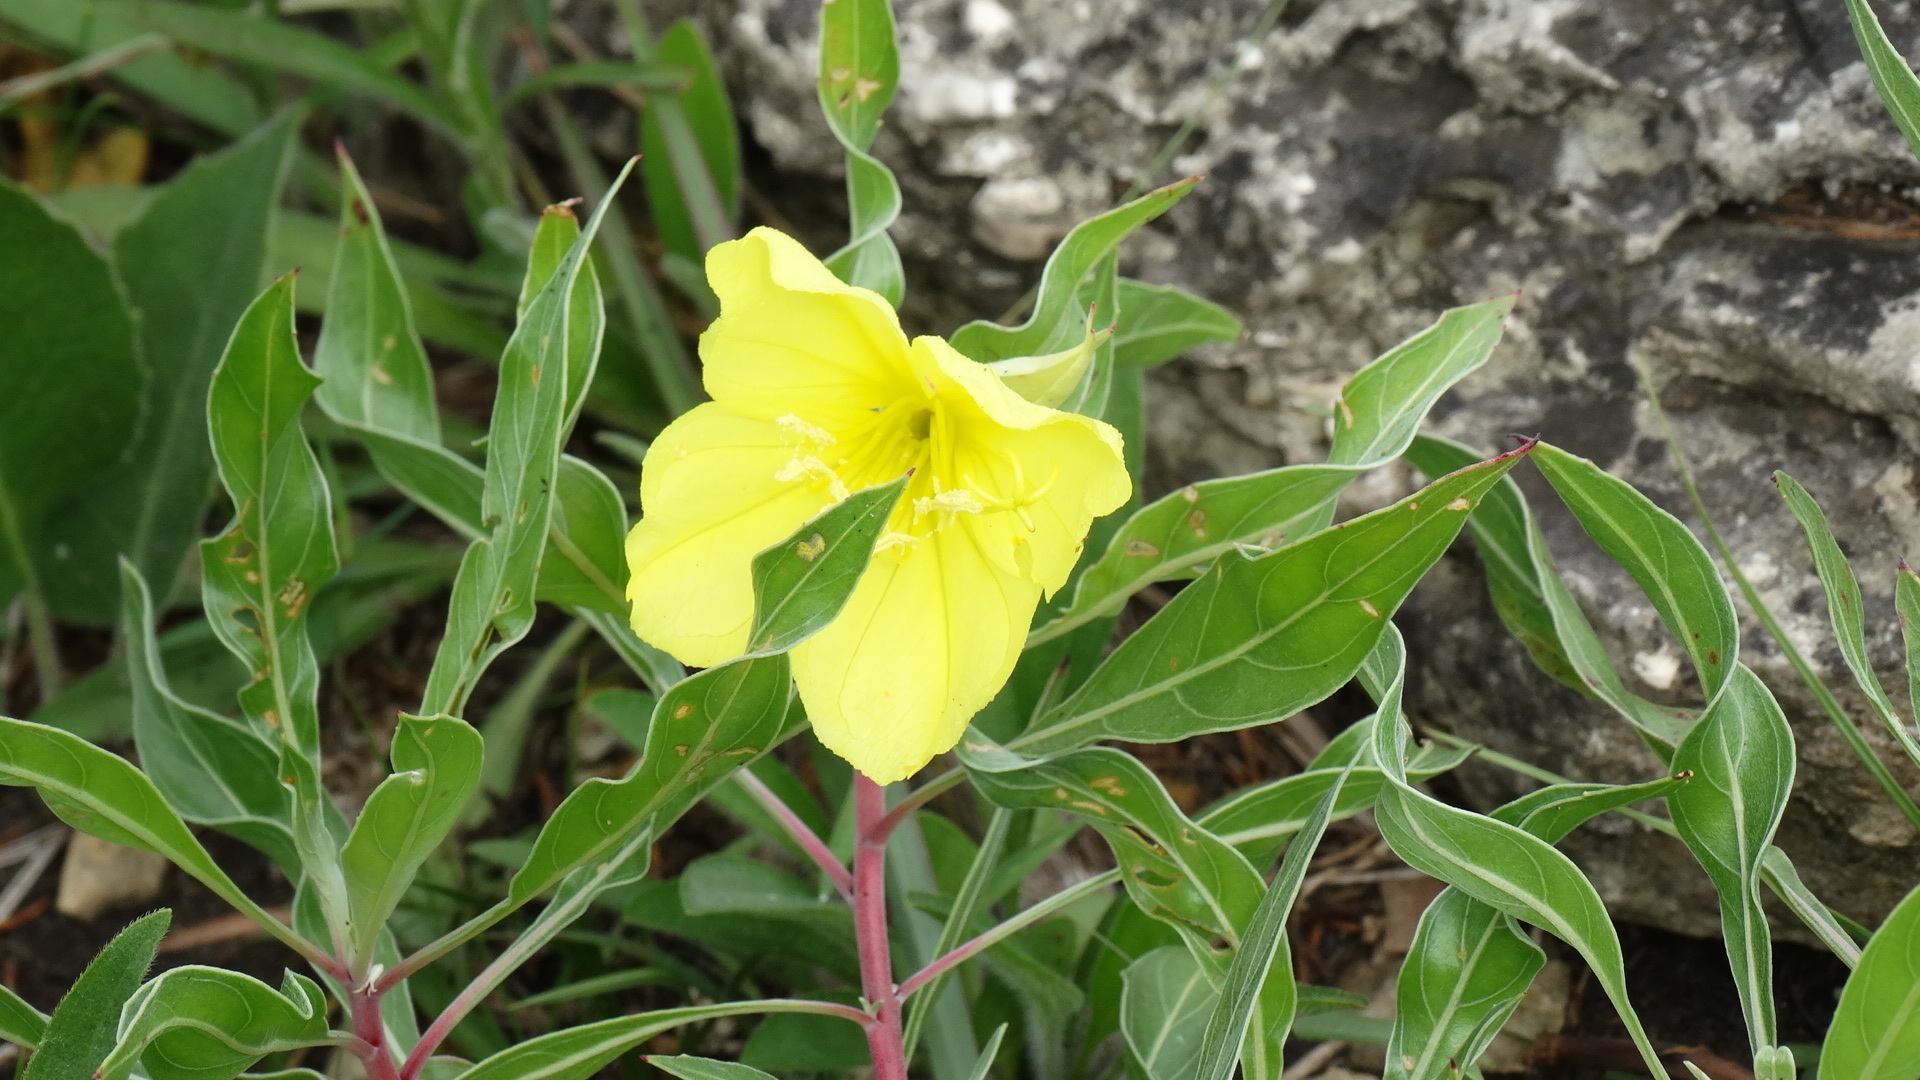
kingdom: Plantae
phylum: Tracheophyta
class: Magnoliopsida
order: Myrtales
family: Onagraceae
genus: Oenothera
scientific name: Oenothera macrocarpa
